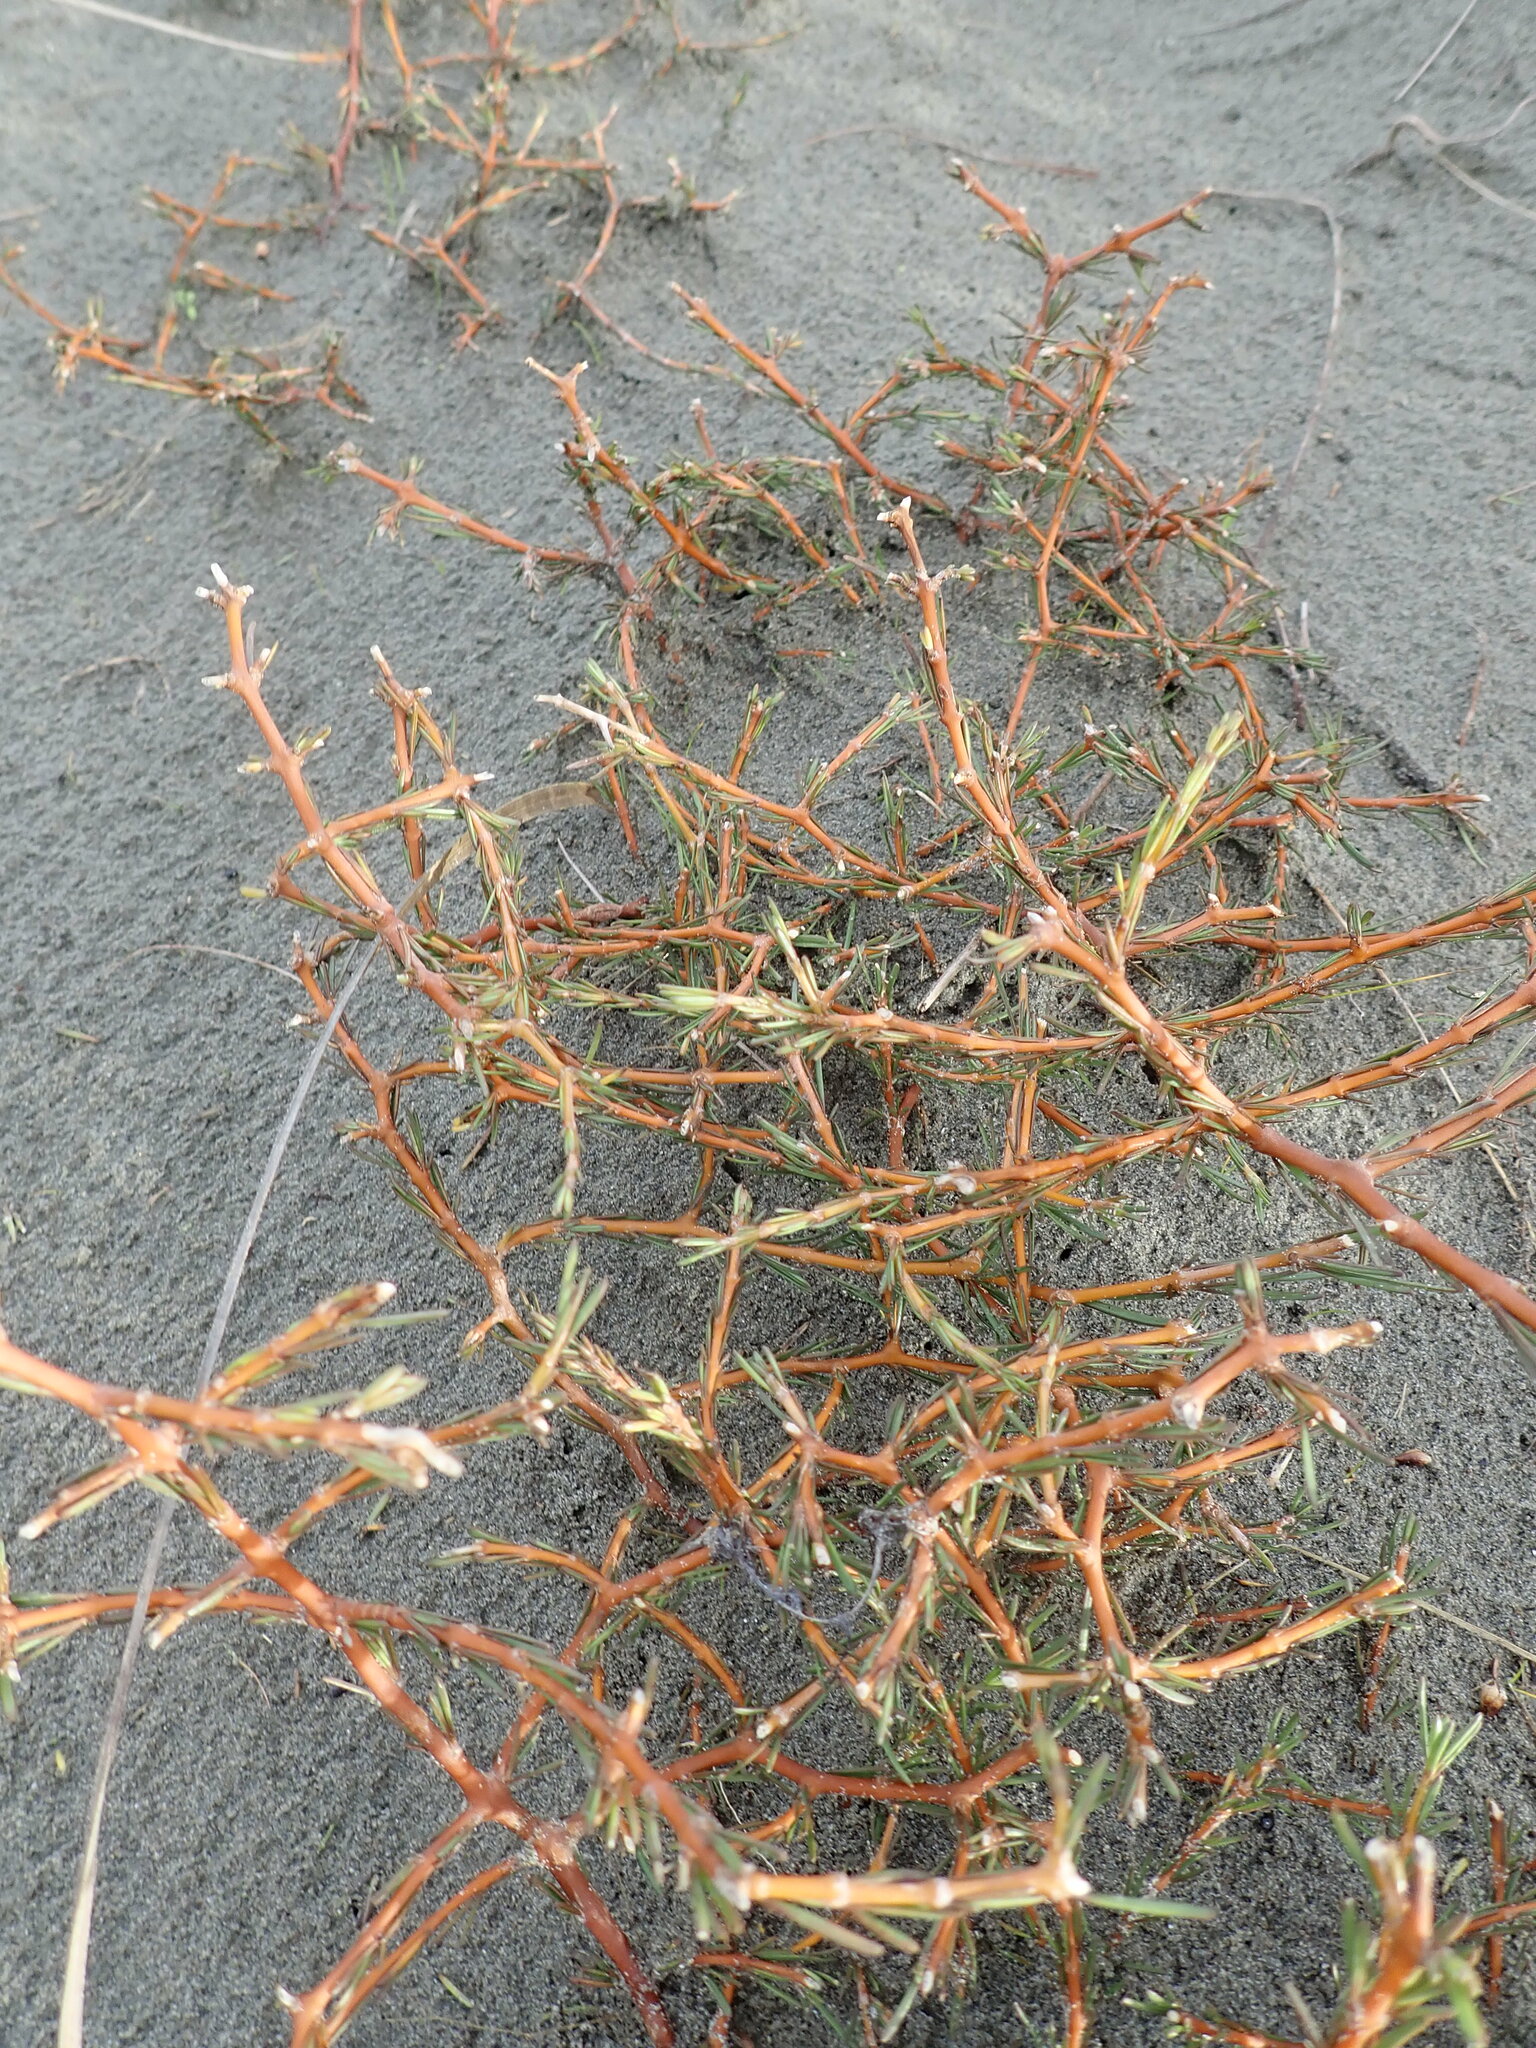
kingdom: Plantae
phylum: Tracheophyta
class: Magnoliopsida
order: Gentianales
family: Rubiaceae
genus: Coprosma
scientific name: Coprosma acerosa
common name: Sand coprosma
